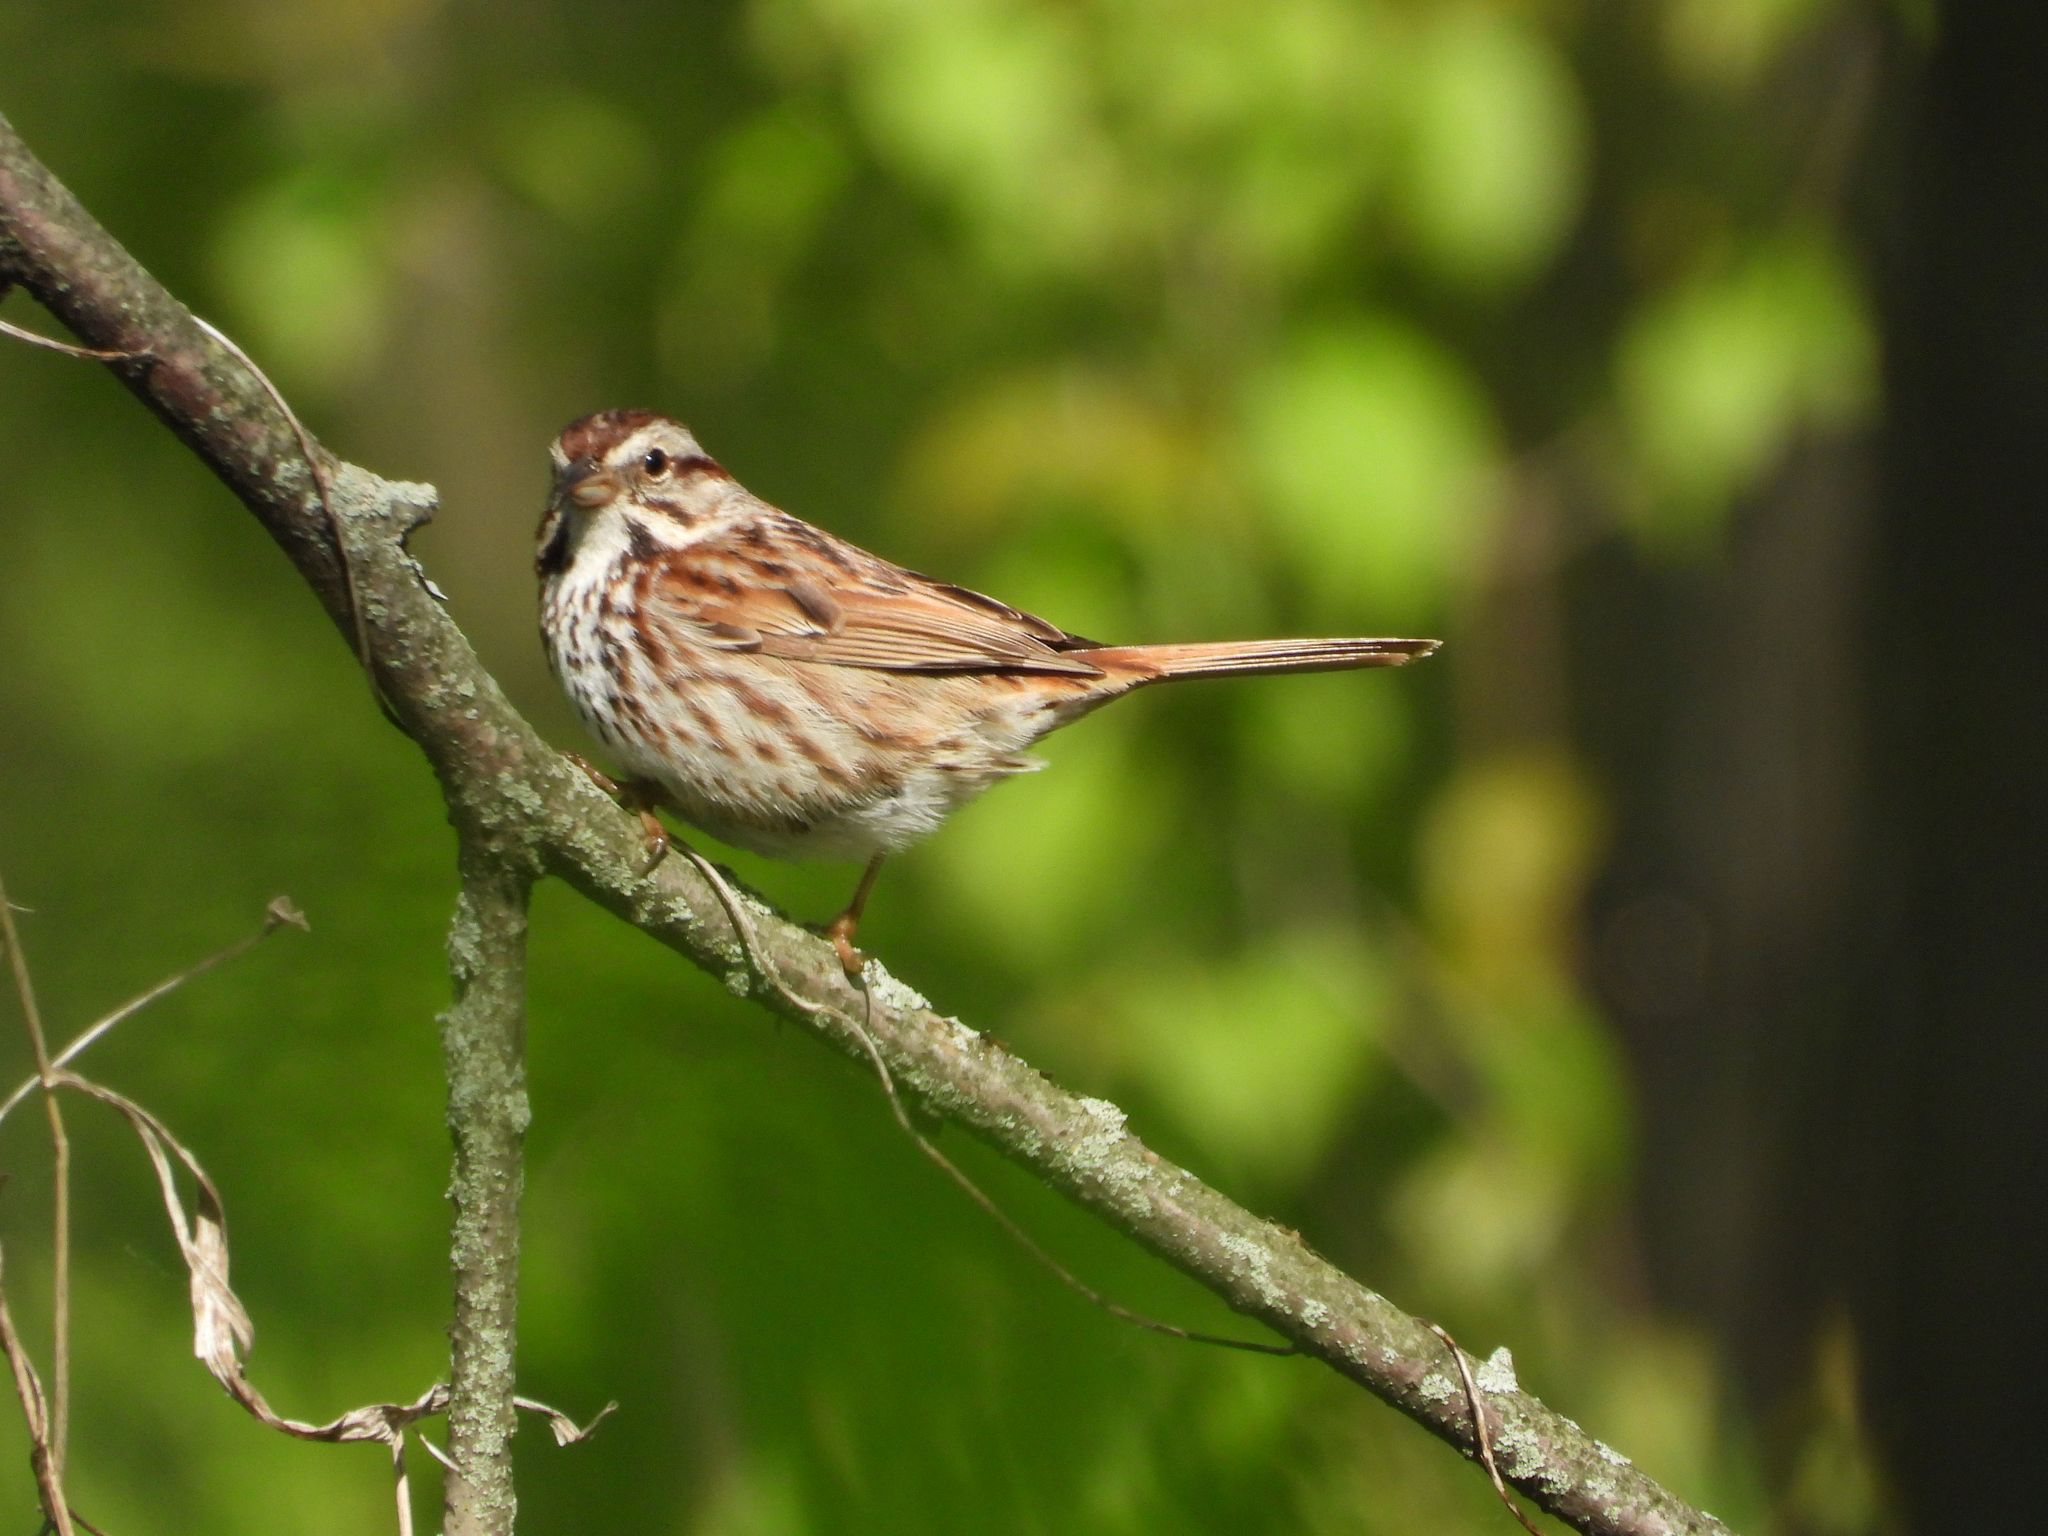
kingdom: Animalia
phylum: Chordata
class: Aves
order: Passeriformes
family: Passerellidae
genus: Melospiza
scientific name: Melospiza melodia
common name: Song sparrow
